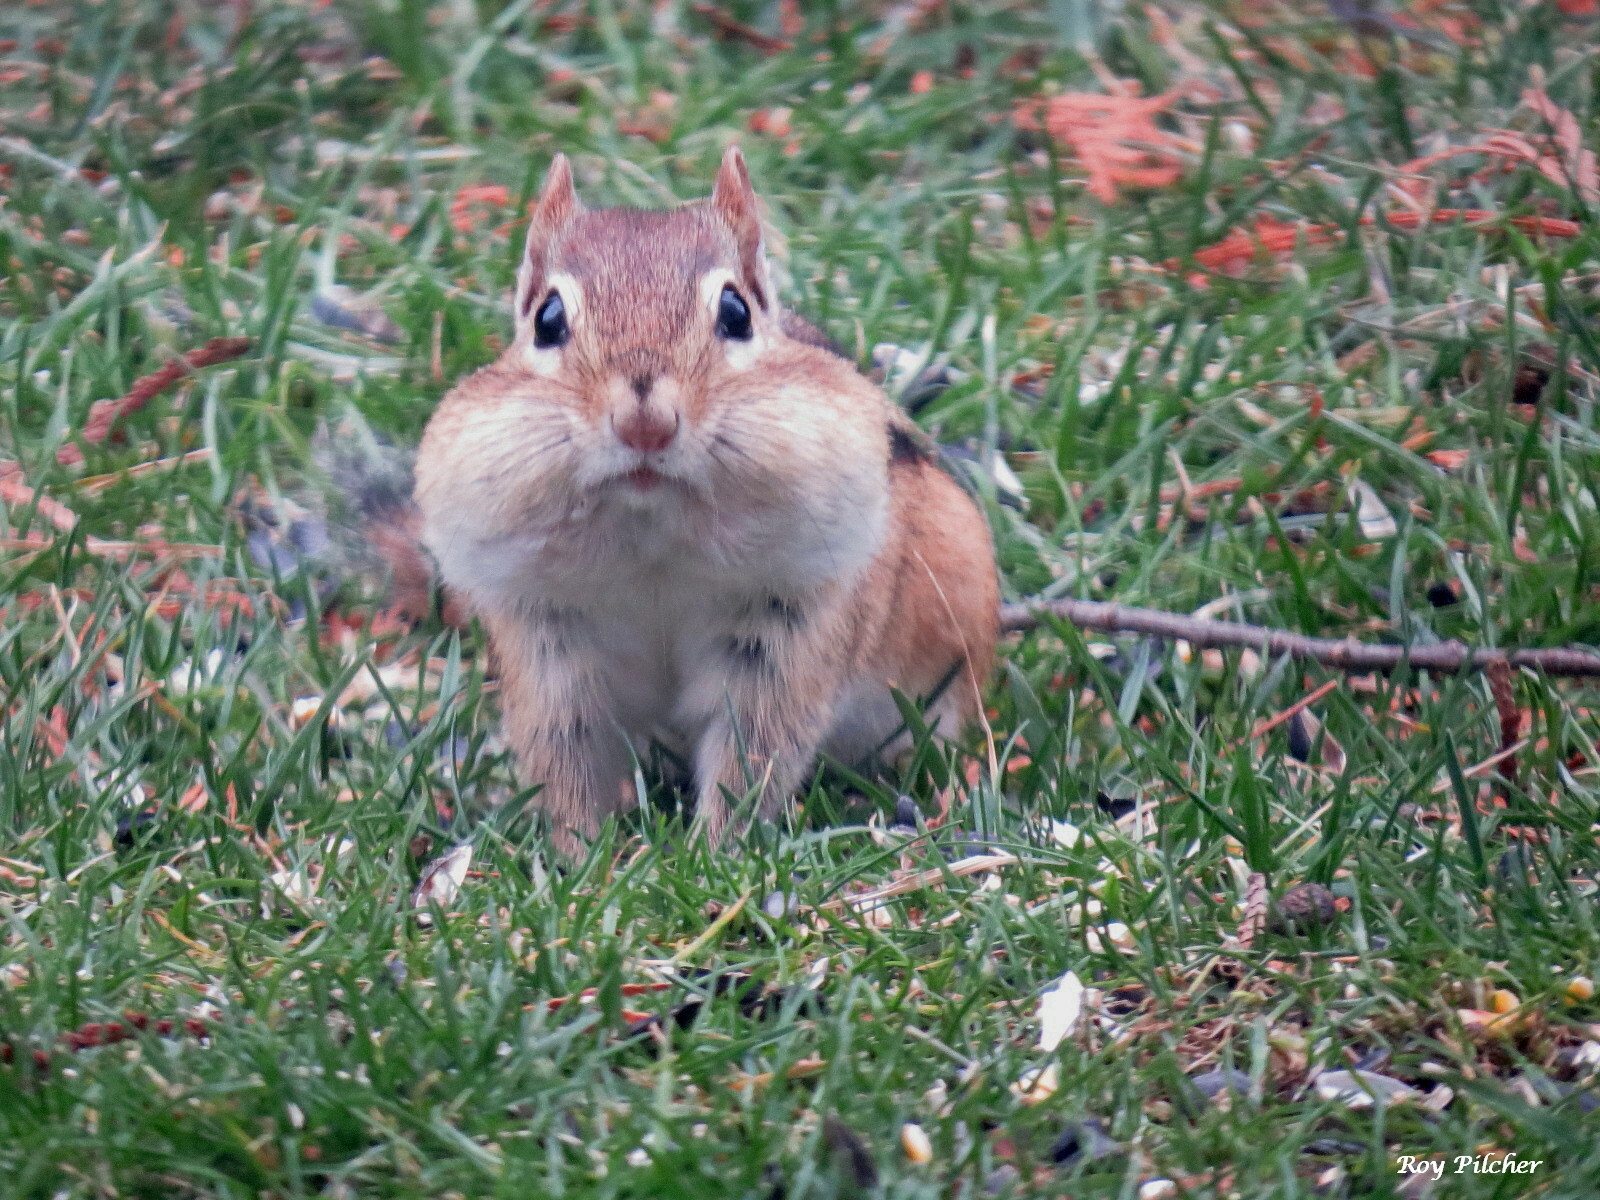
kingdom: Animalia
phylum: Chordata
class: Mammalia
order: Rodentia
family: Sciuridae
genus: Tamias
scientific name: Tamias striatus
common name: Eastern chipmunk
